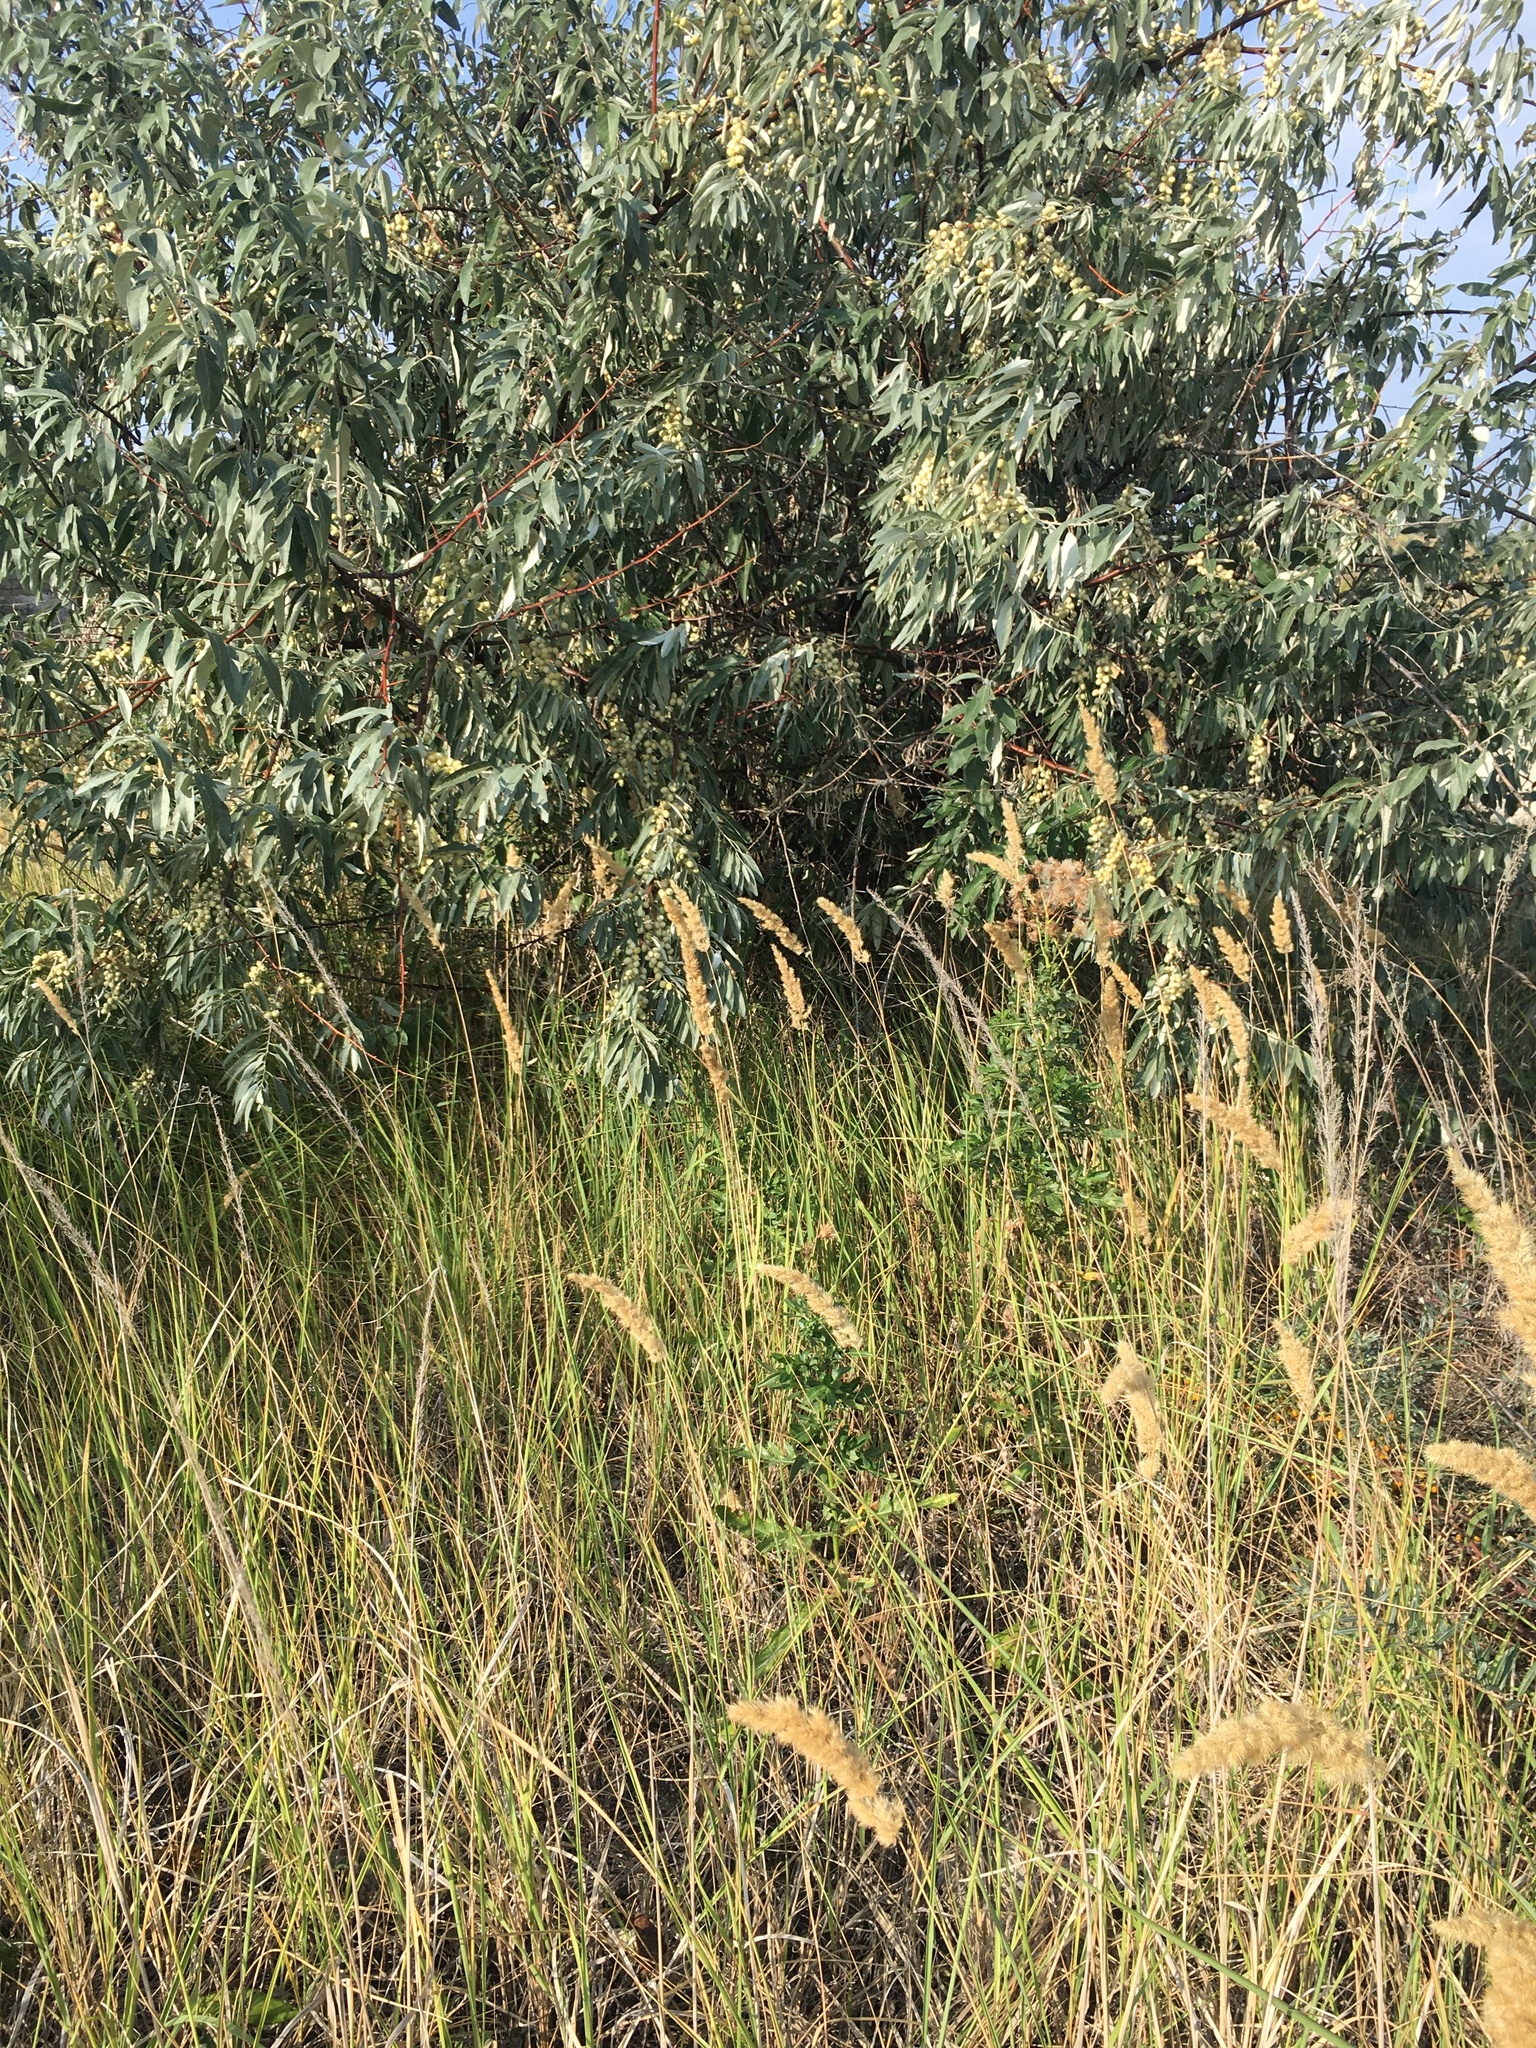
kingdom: Plantae
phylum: Tracheophyta
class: Magnoliopsida
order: Rosales
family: Elaeagnaceae
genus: Elaeagnus
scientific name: Elaeagnus angustifolia
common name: Russian olive
